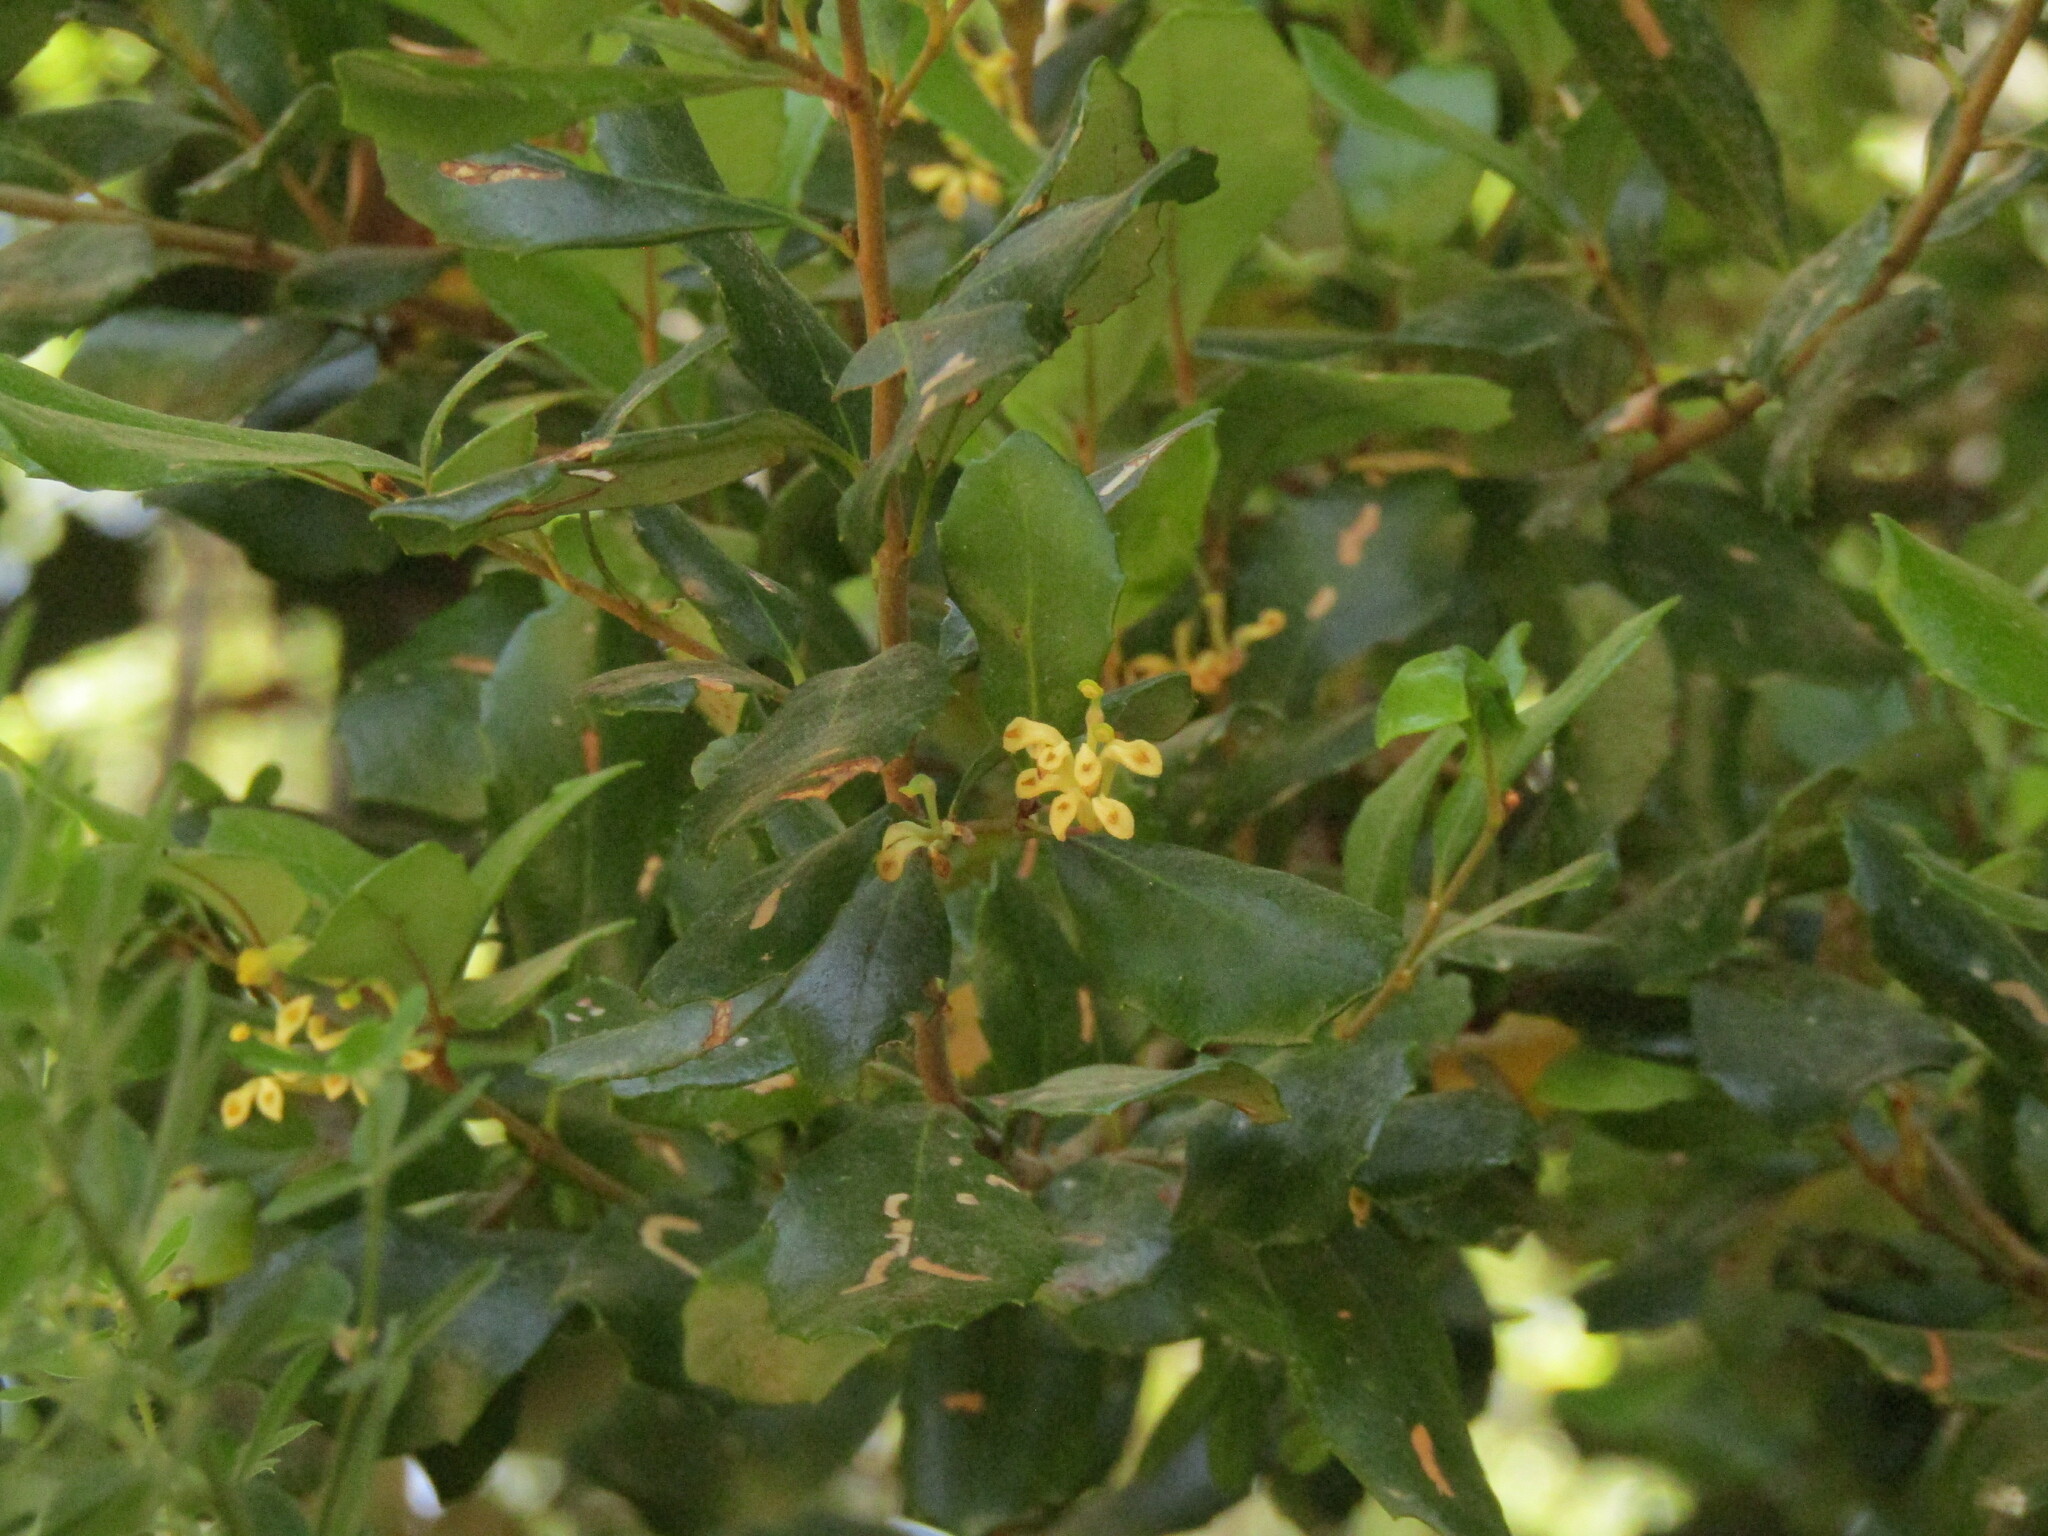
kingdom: Plantae
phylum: Tracheophyta
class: Magnoliopsida
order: Proteales
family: Proteaceae
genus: Lomatia
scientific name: Lomatia dentata
